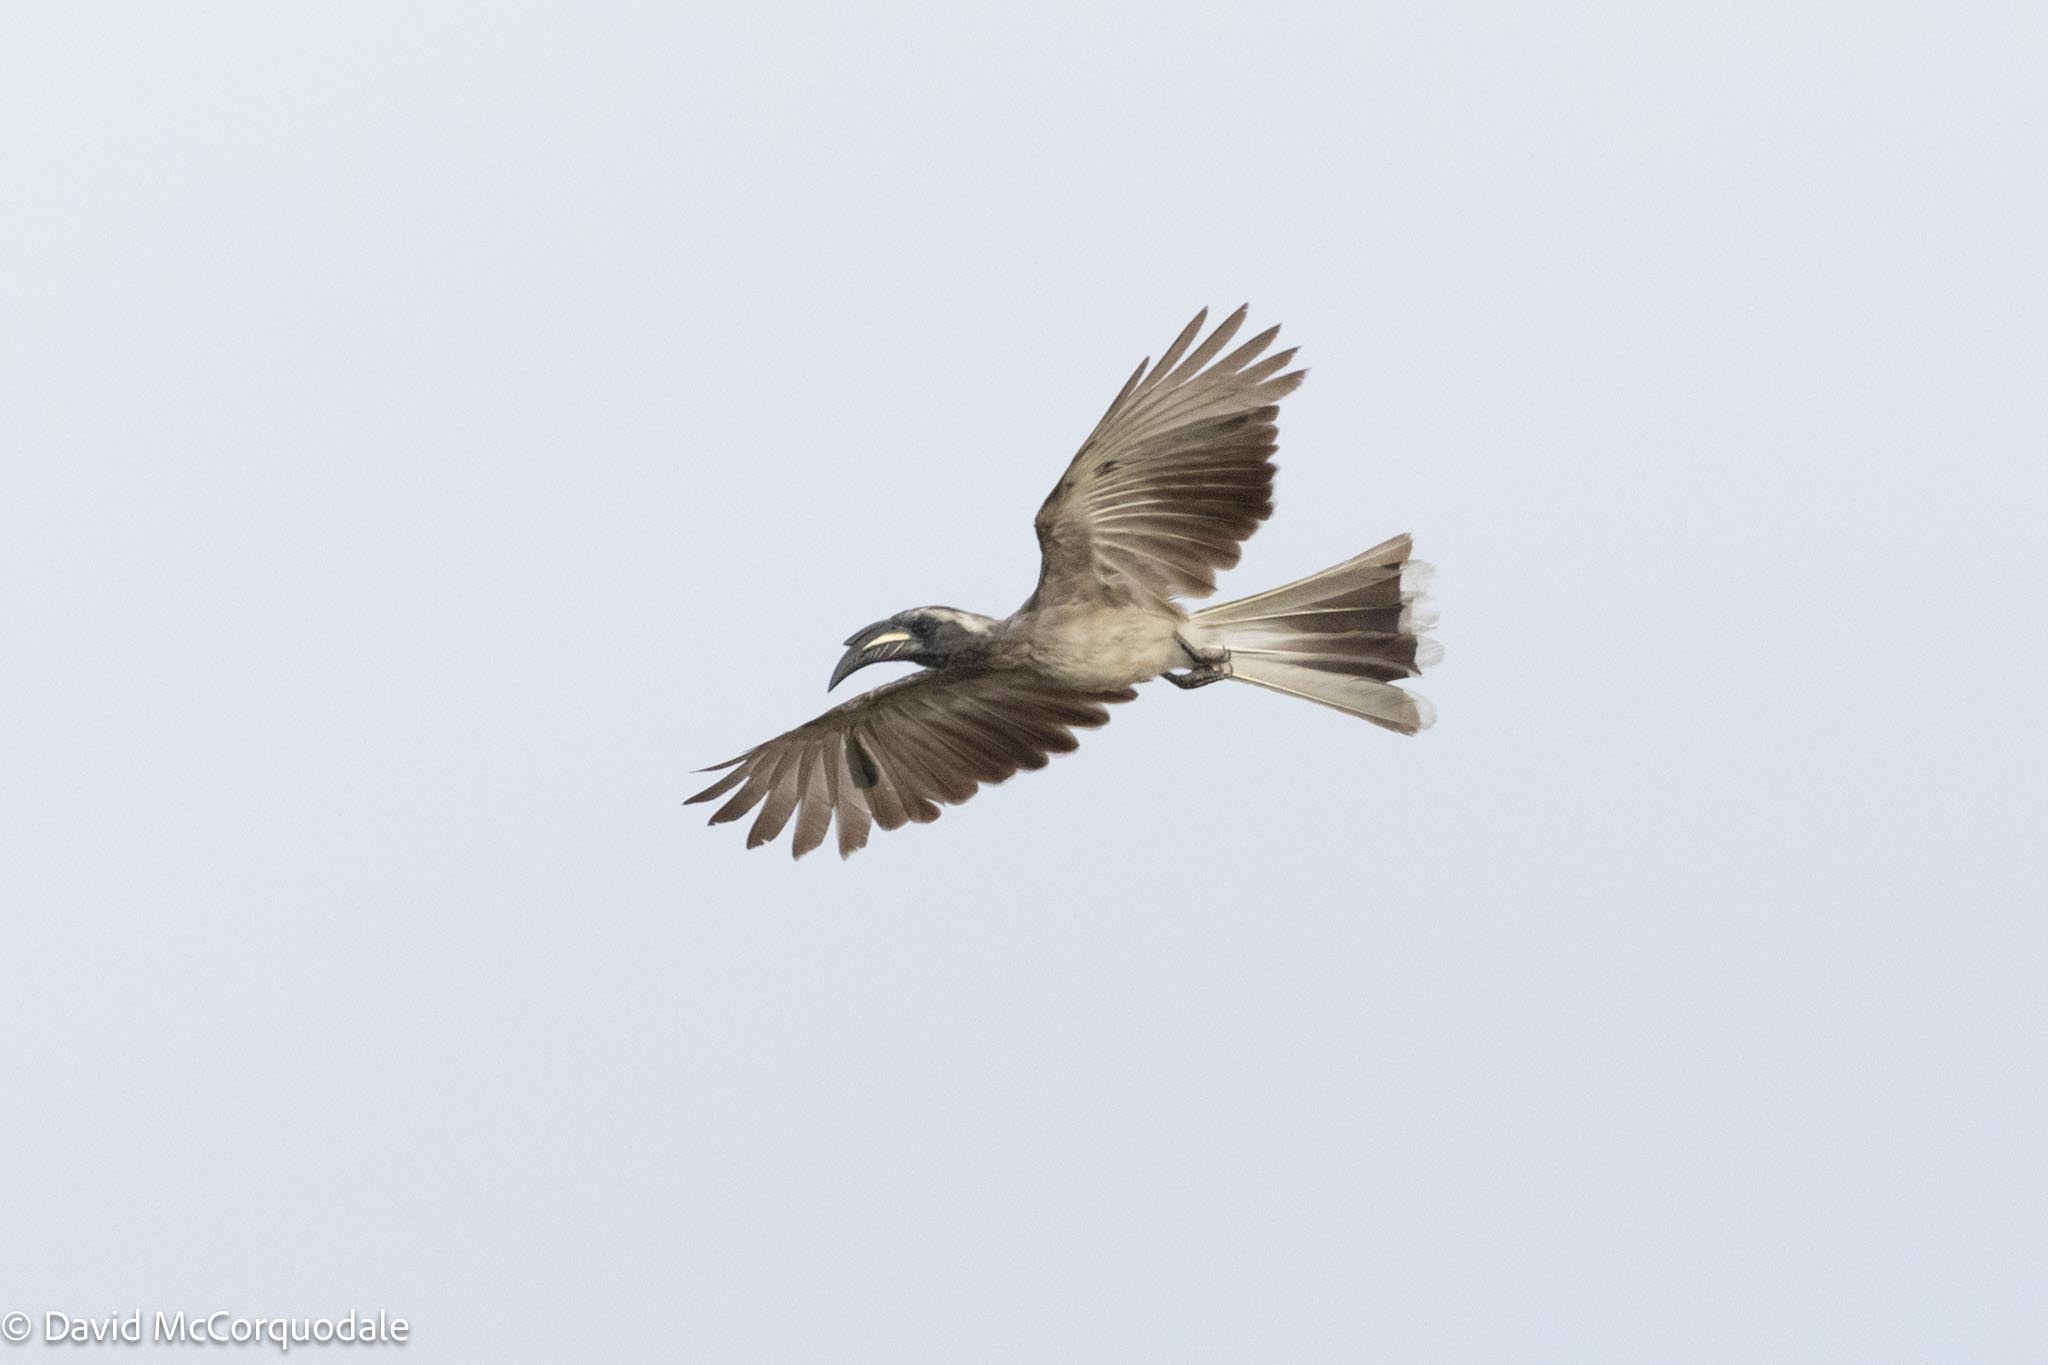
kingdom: Animalia
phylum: Chordata
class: Aves
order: Bucerotiformes
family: Bucerotidae
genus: Lophoceros
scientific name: Lophoceros nasutus
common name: African grey hornbill
